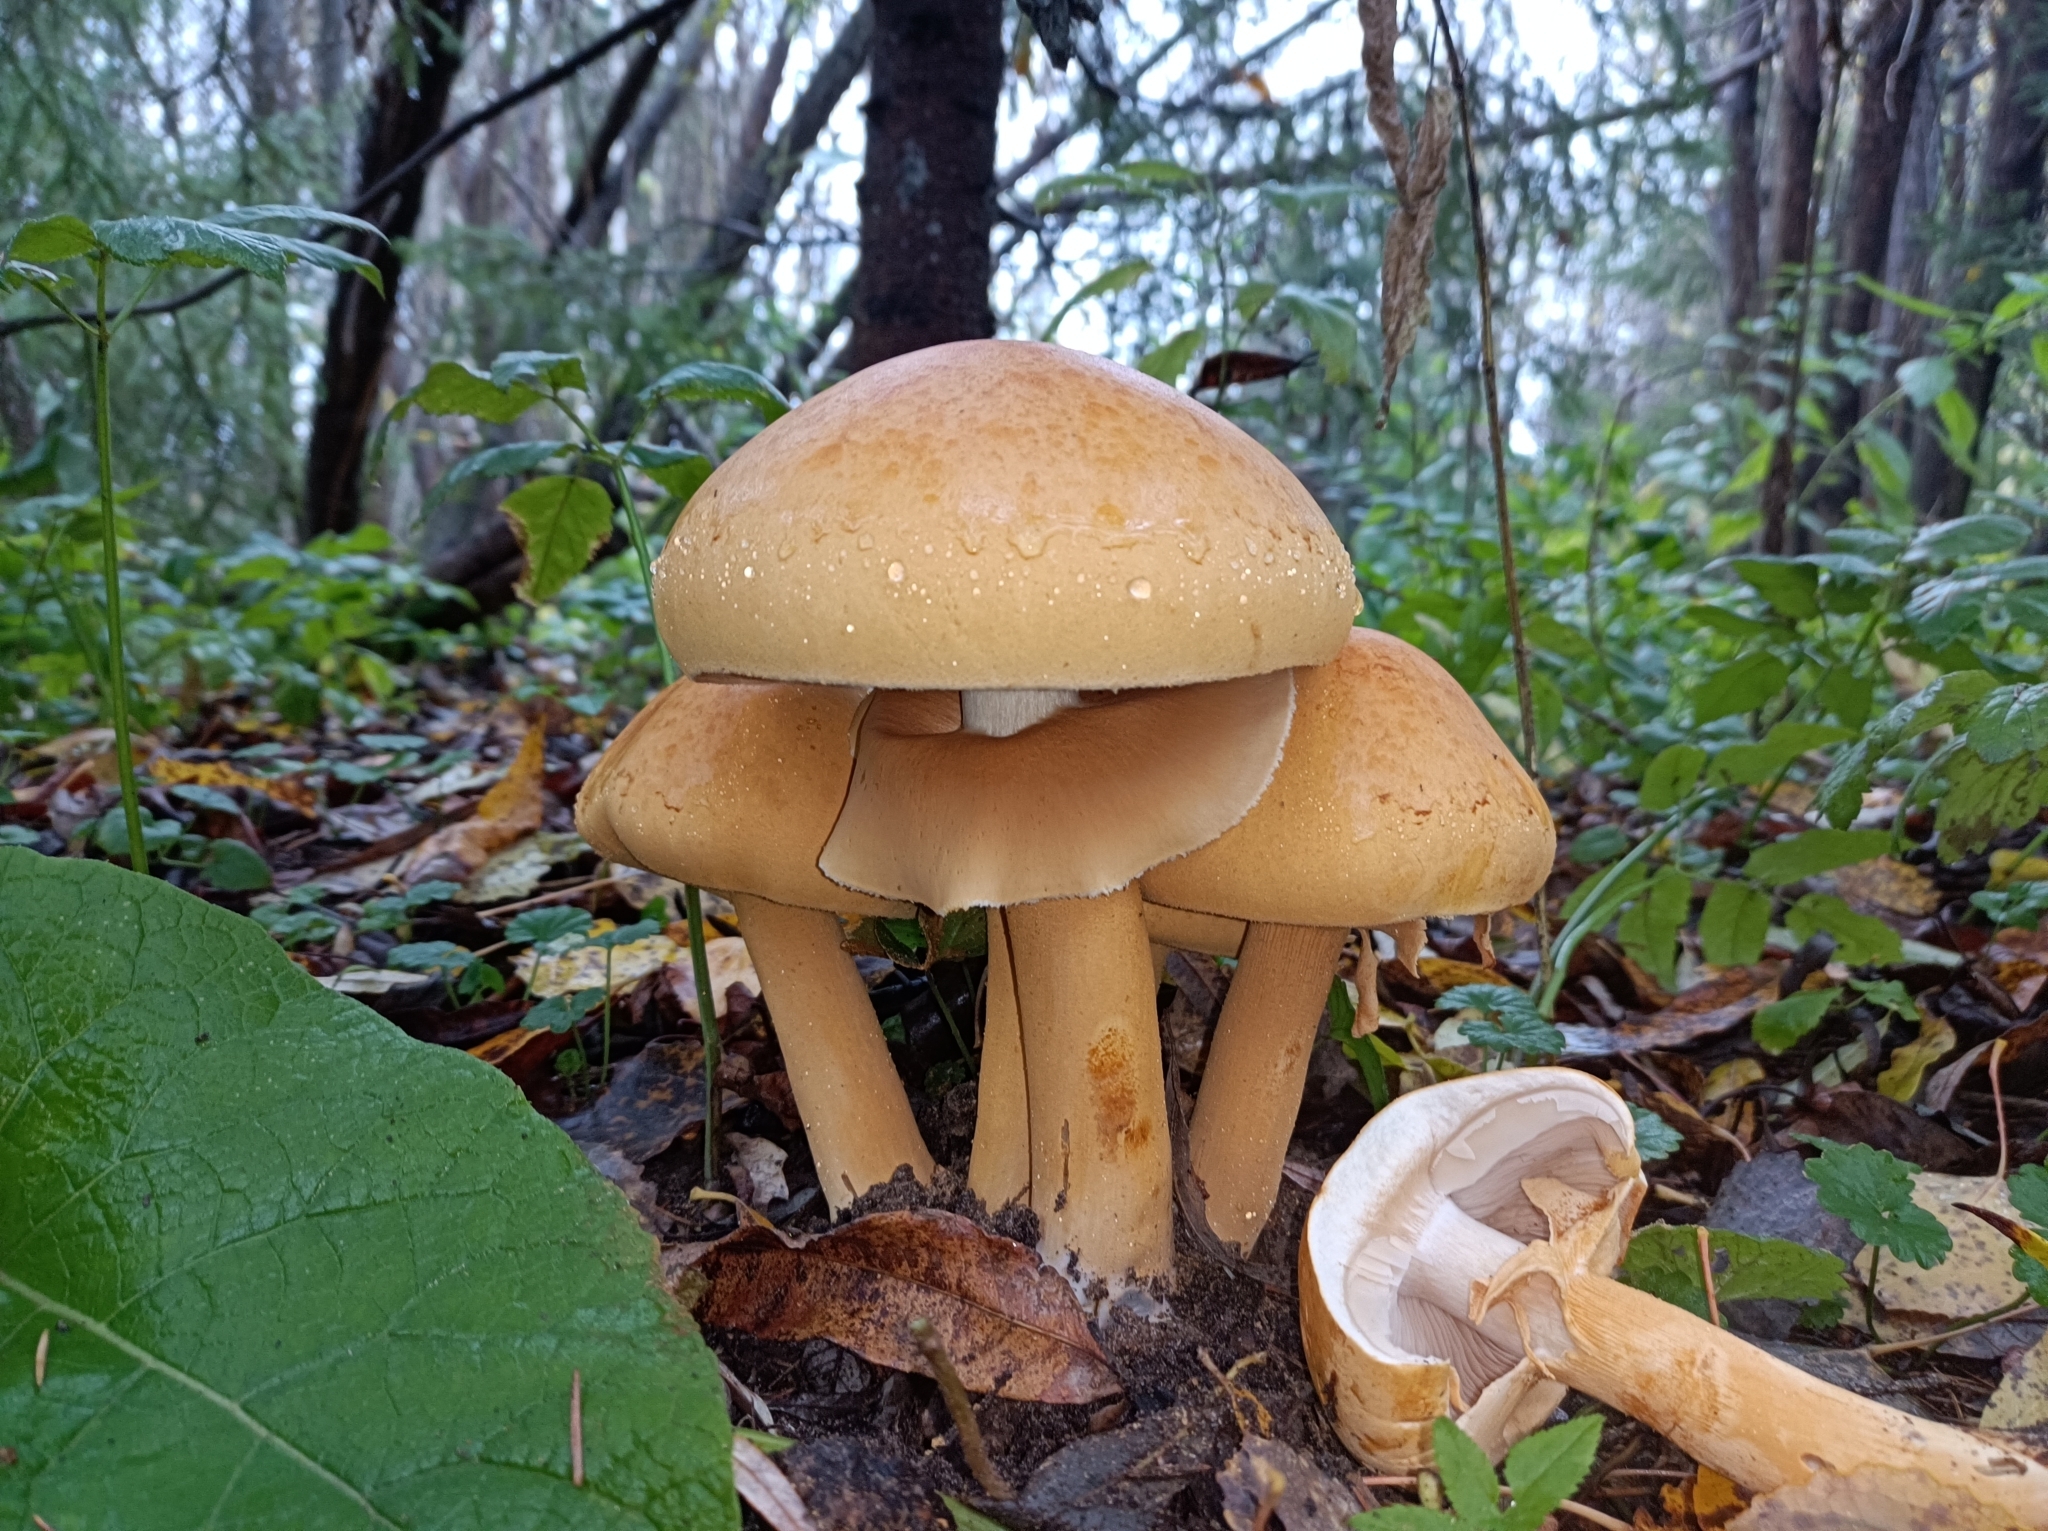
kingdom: Fungi
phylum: Basidiomycota
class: Agaricomycetes
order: Agaricales
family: Tricholomataceae
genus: Phaeolepiota
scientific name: Phaeolepiota aurea
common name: Golden bootleg
